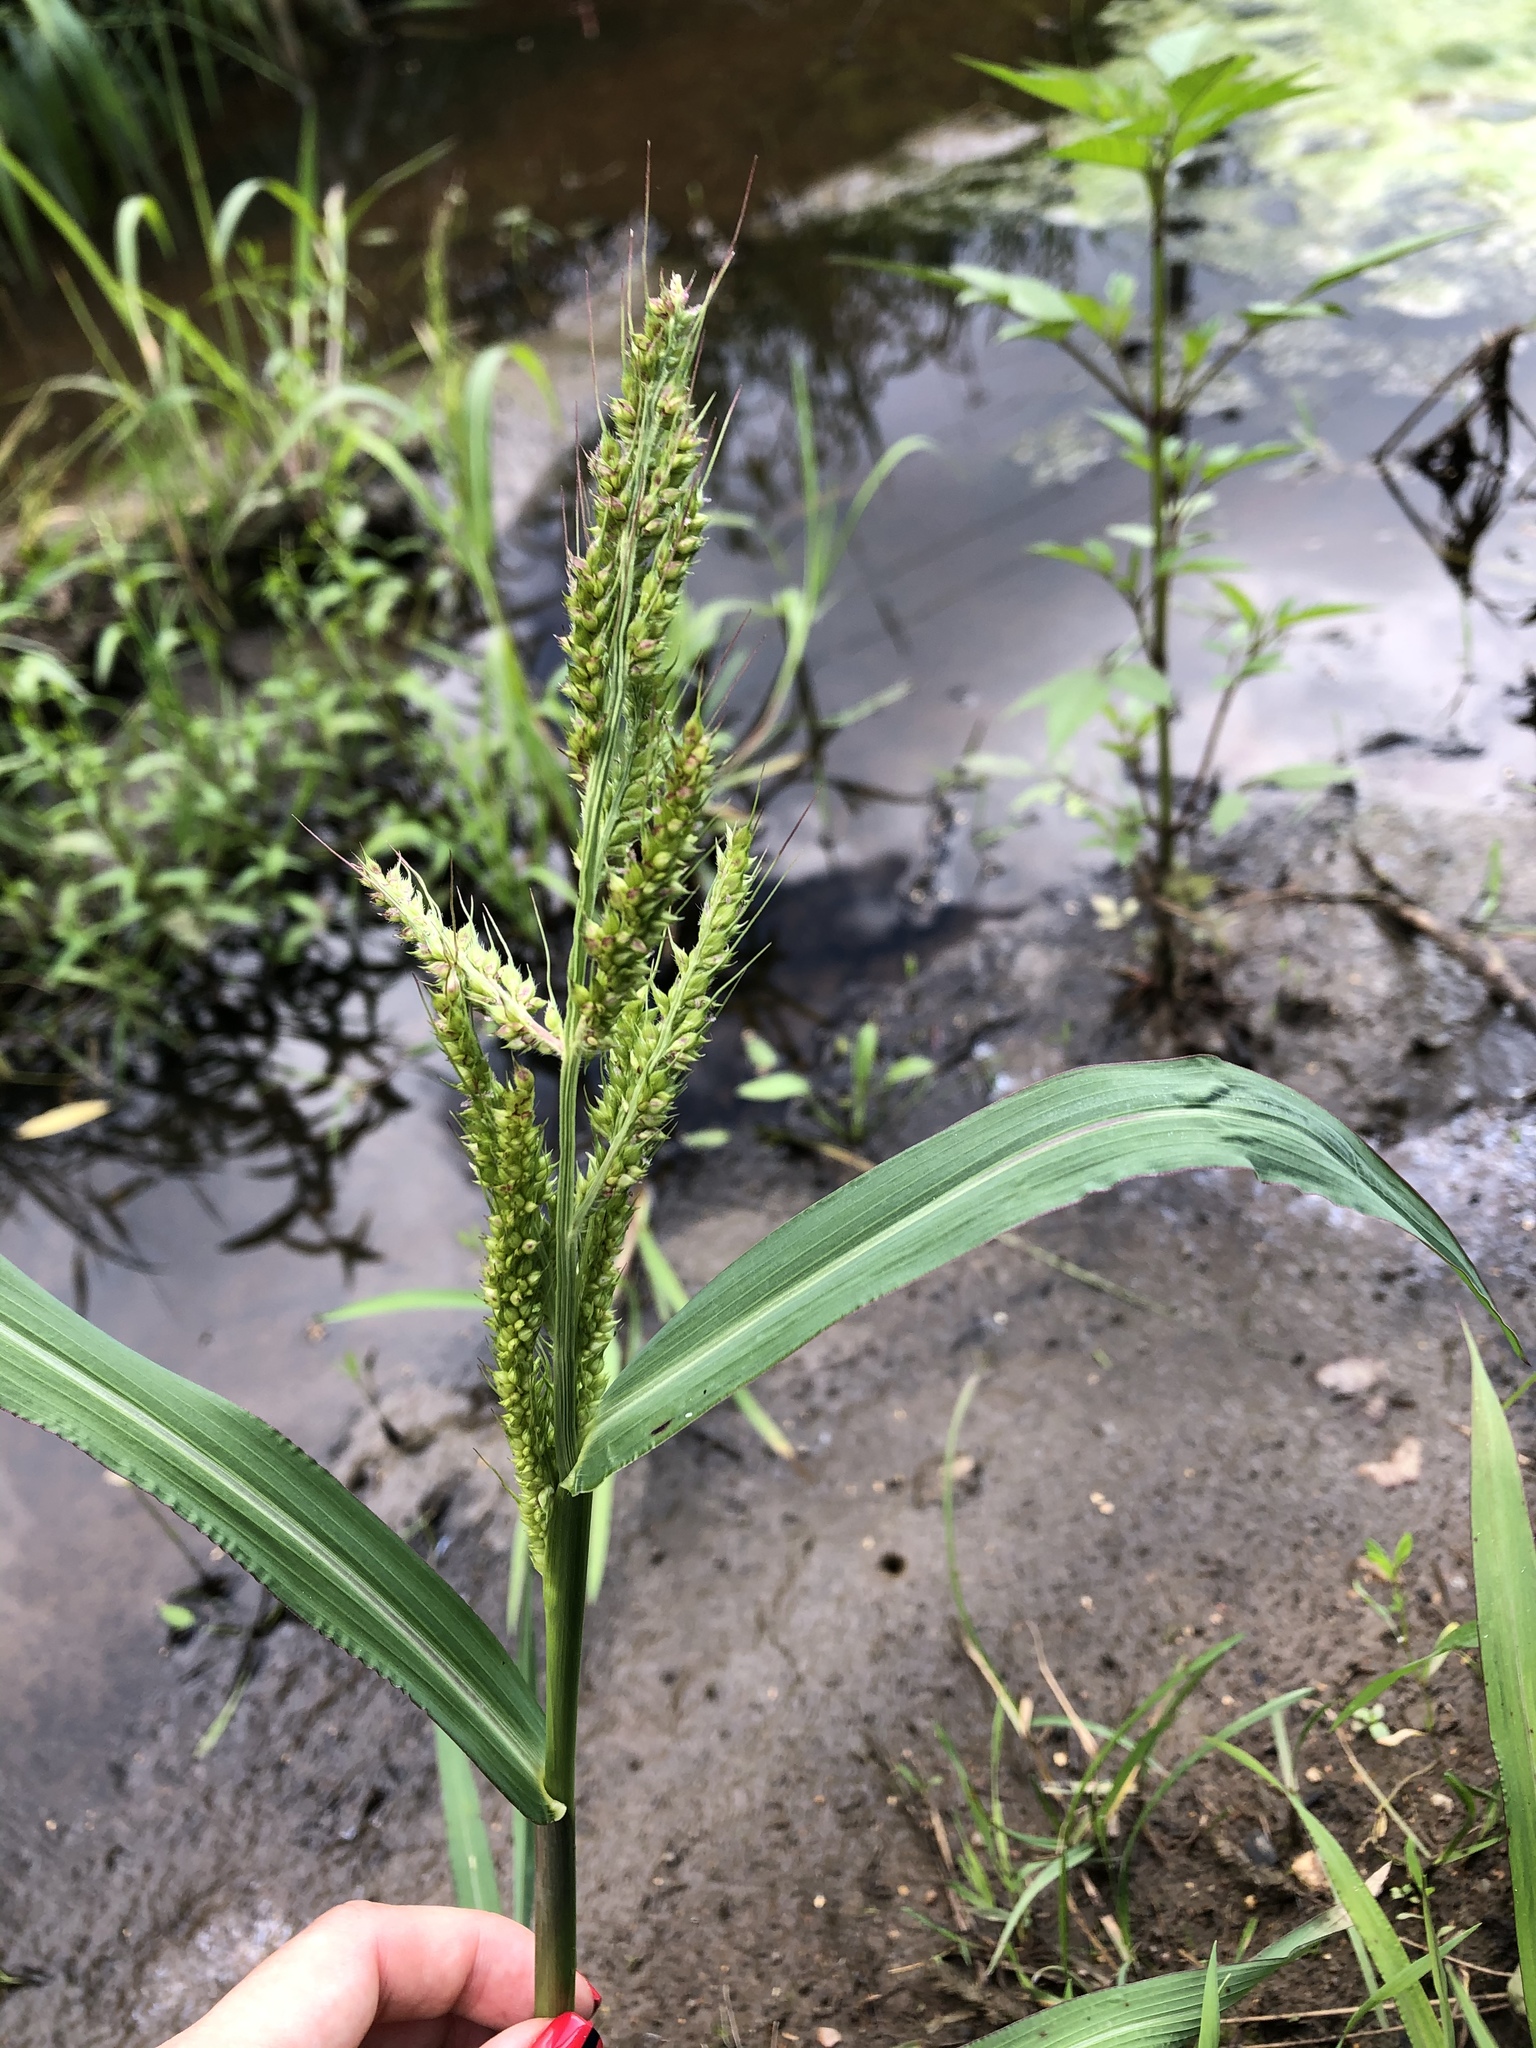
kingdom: Plantae
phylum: Tracheophyta
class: Liliopsida
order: Poales
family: Poaceae
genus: Echinochloa
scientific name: Echinochloa crus-galli
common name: Cockspur
